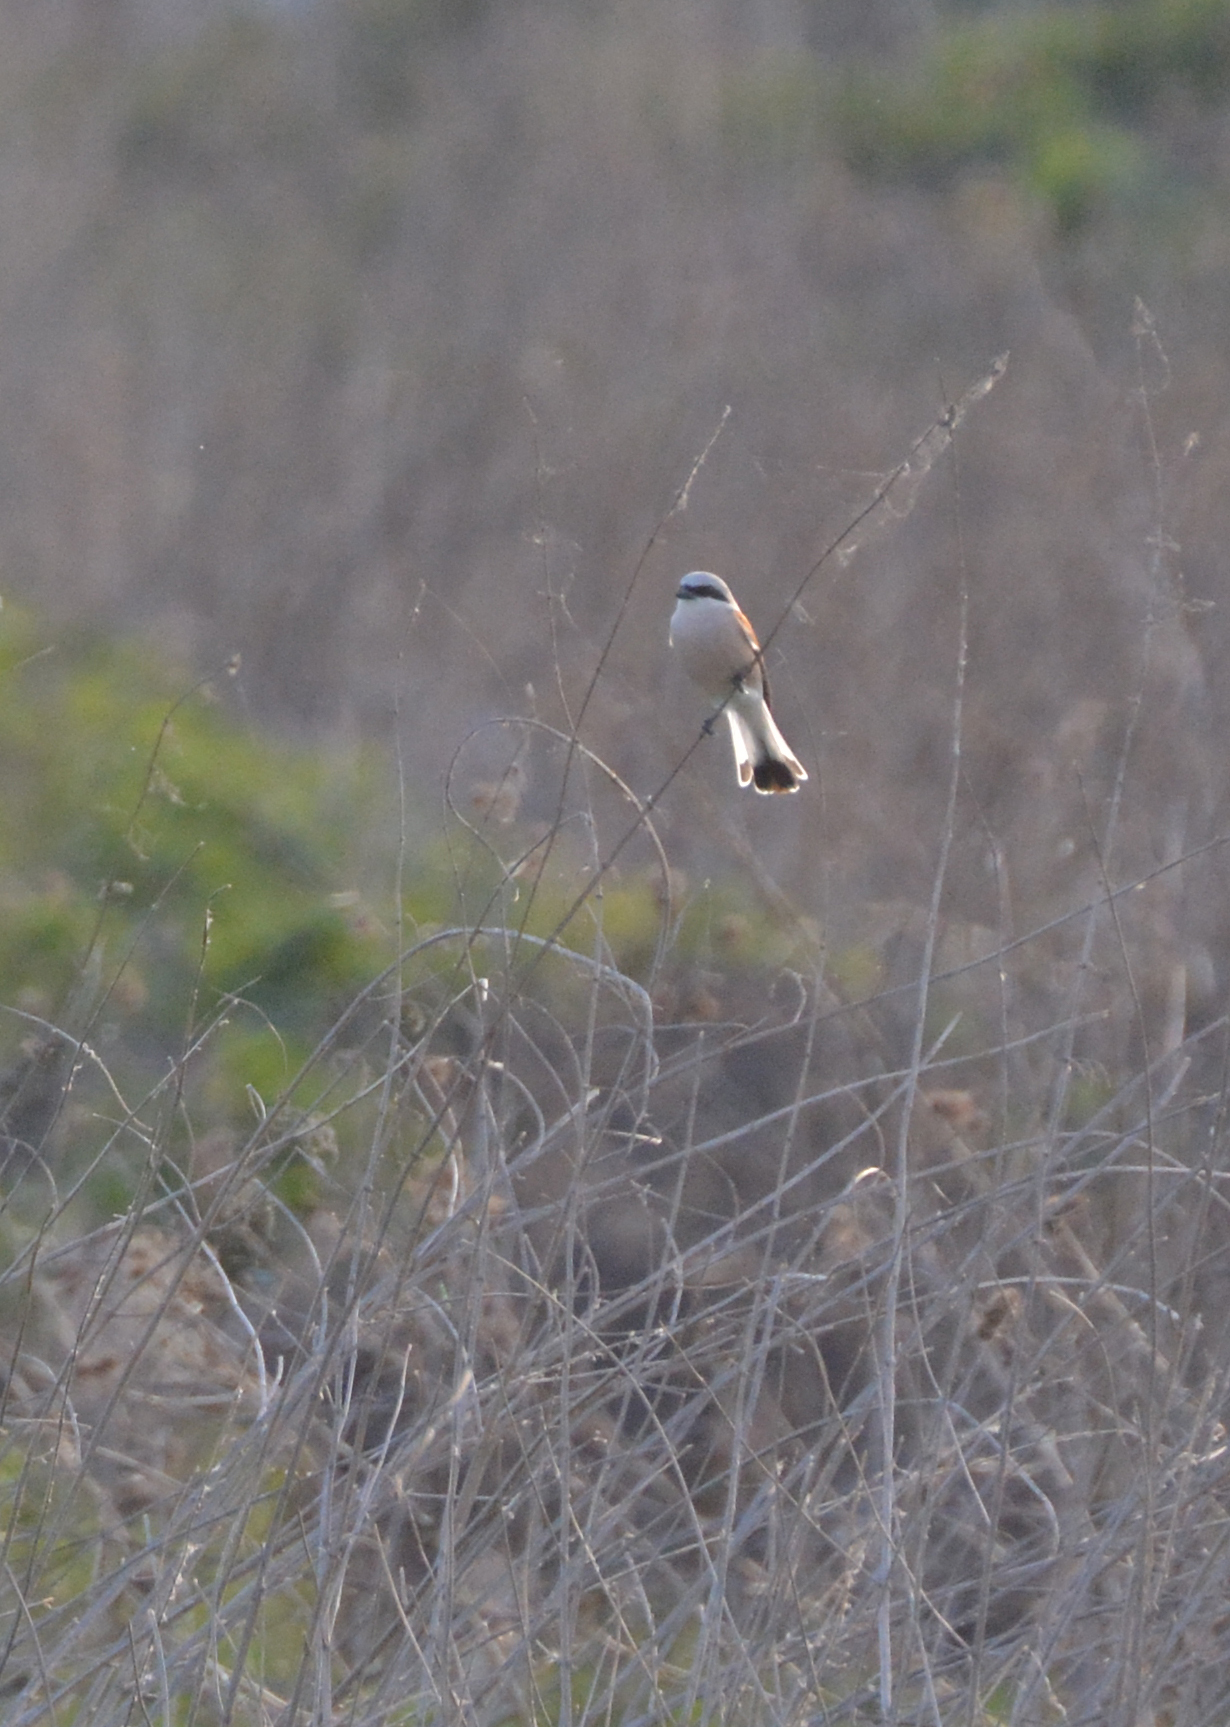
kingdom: Animalia
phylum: Chordata
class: Aves
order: Passeriformes
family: Laniidae
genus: Lanius
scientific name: Lanius collurio
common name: Red-backed shrike
